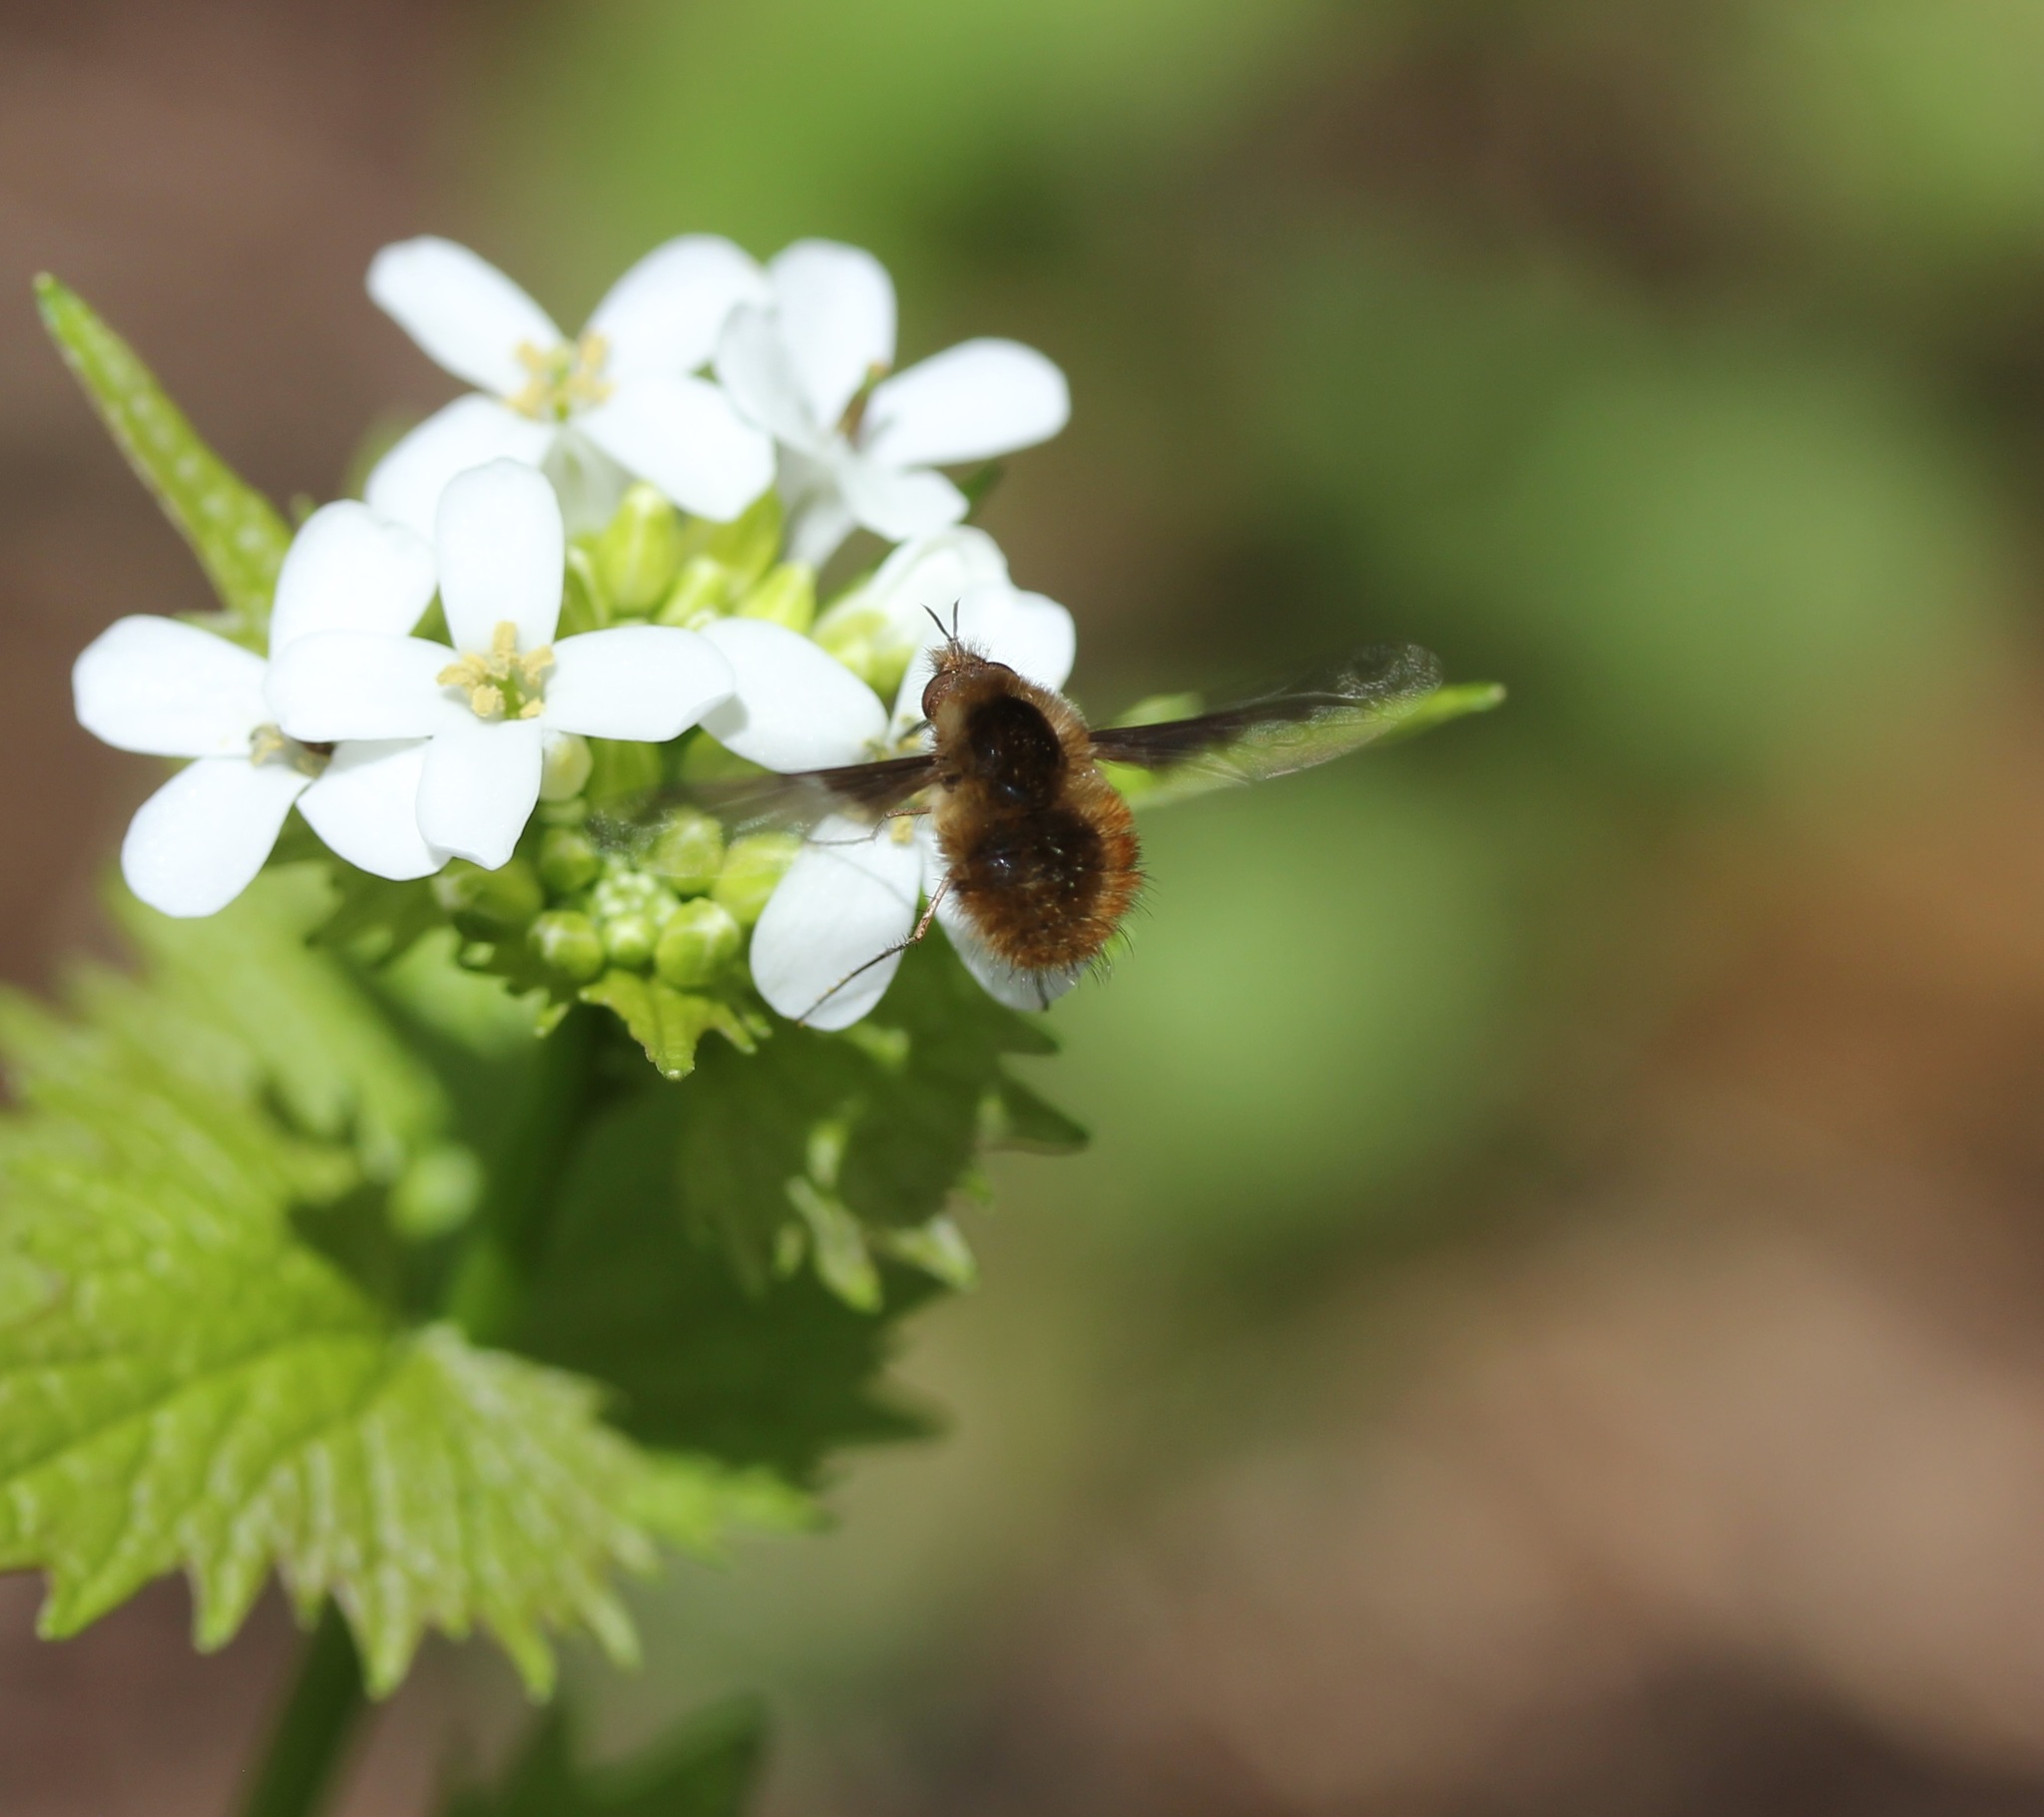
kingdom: Animalia
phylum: Arthropoda
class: Insecta
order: Diptera
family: Bombyliidae
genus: Bombylius
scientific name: Bombylius major
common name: Bee fly
